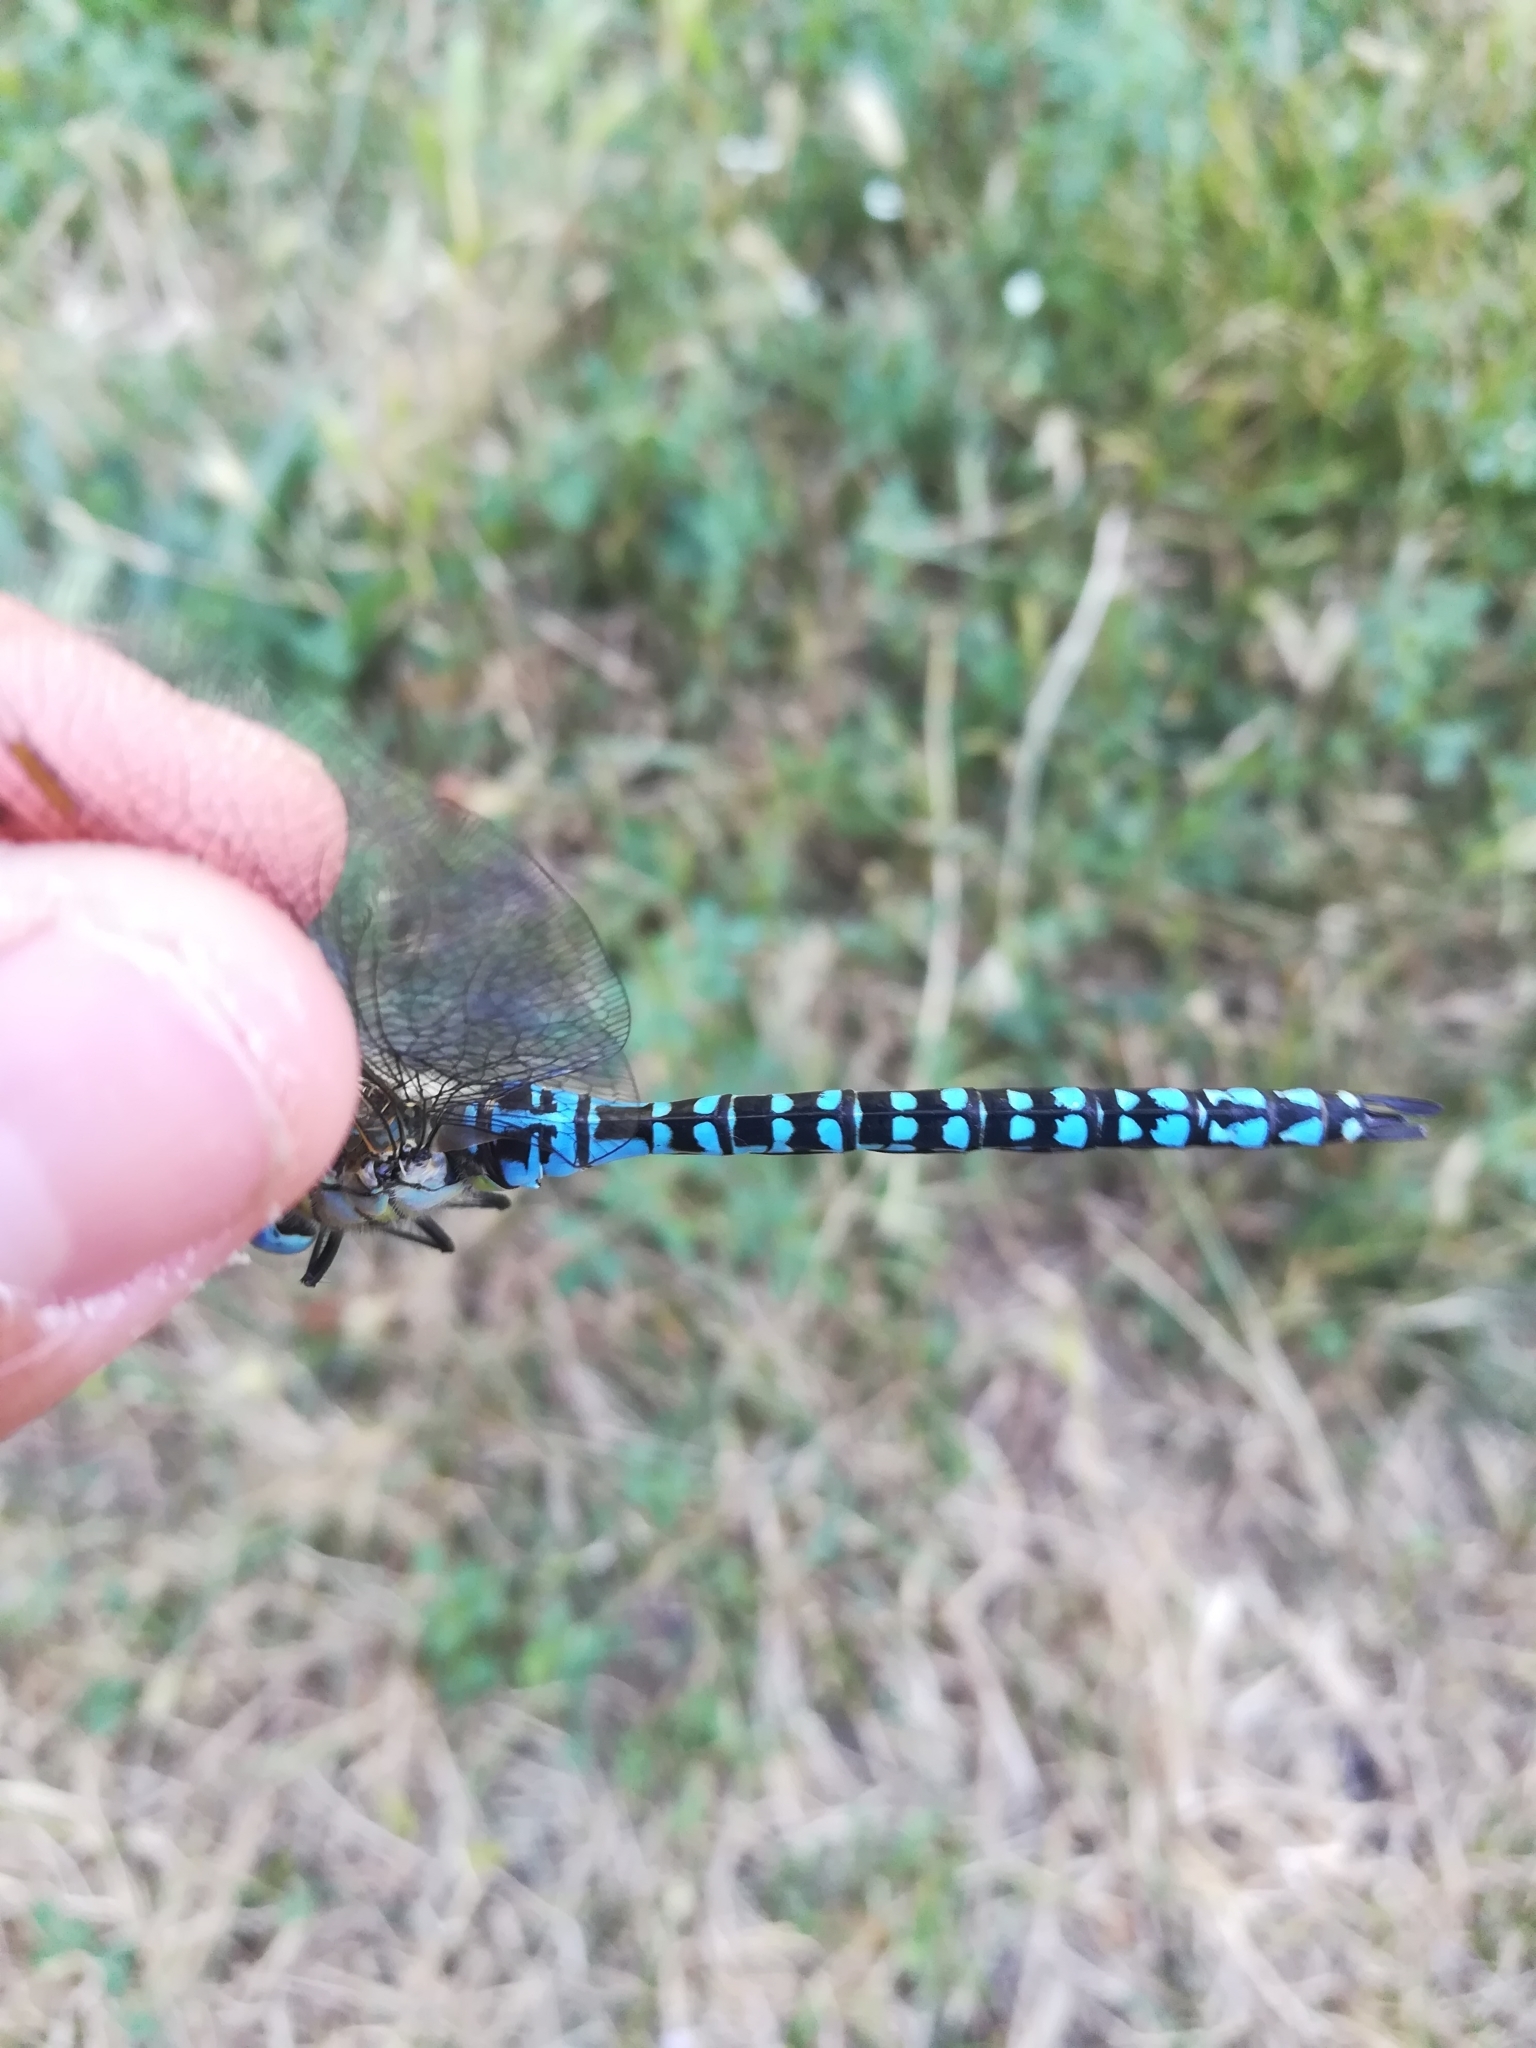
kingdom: Animalia
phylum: Arthropoda
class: Insecta
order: Odonata
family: Aeshnidae
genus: Aeshna
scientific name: Aeshna affinis
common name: Southern migrant hawker
